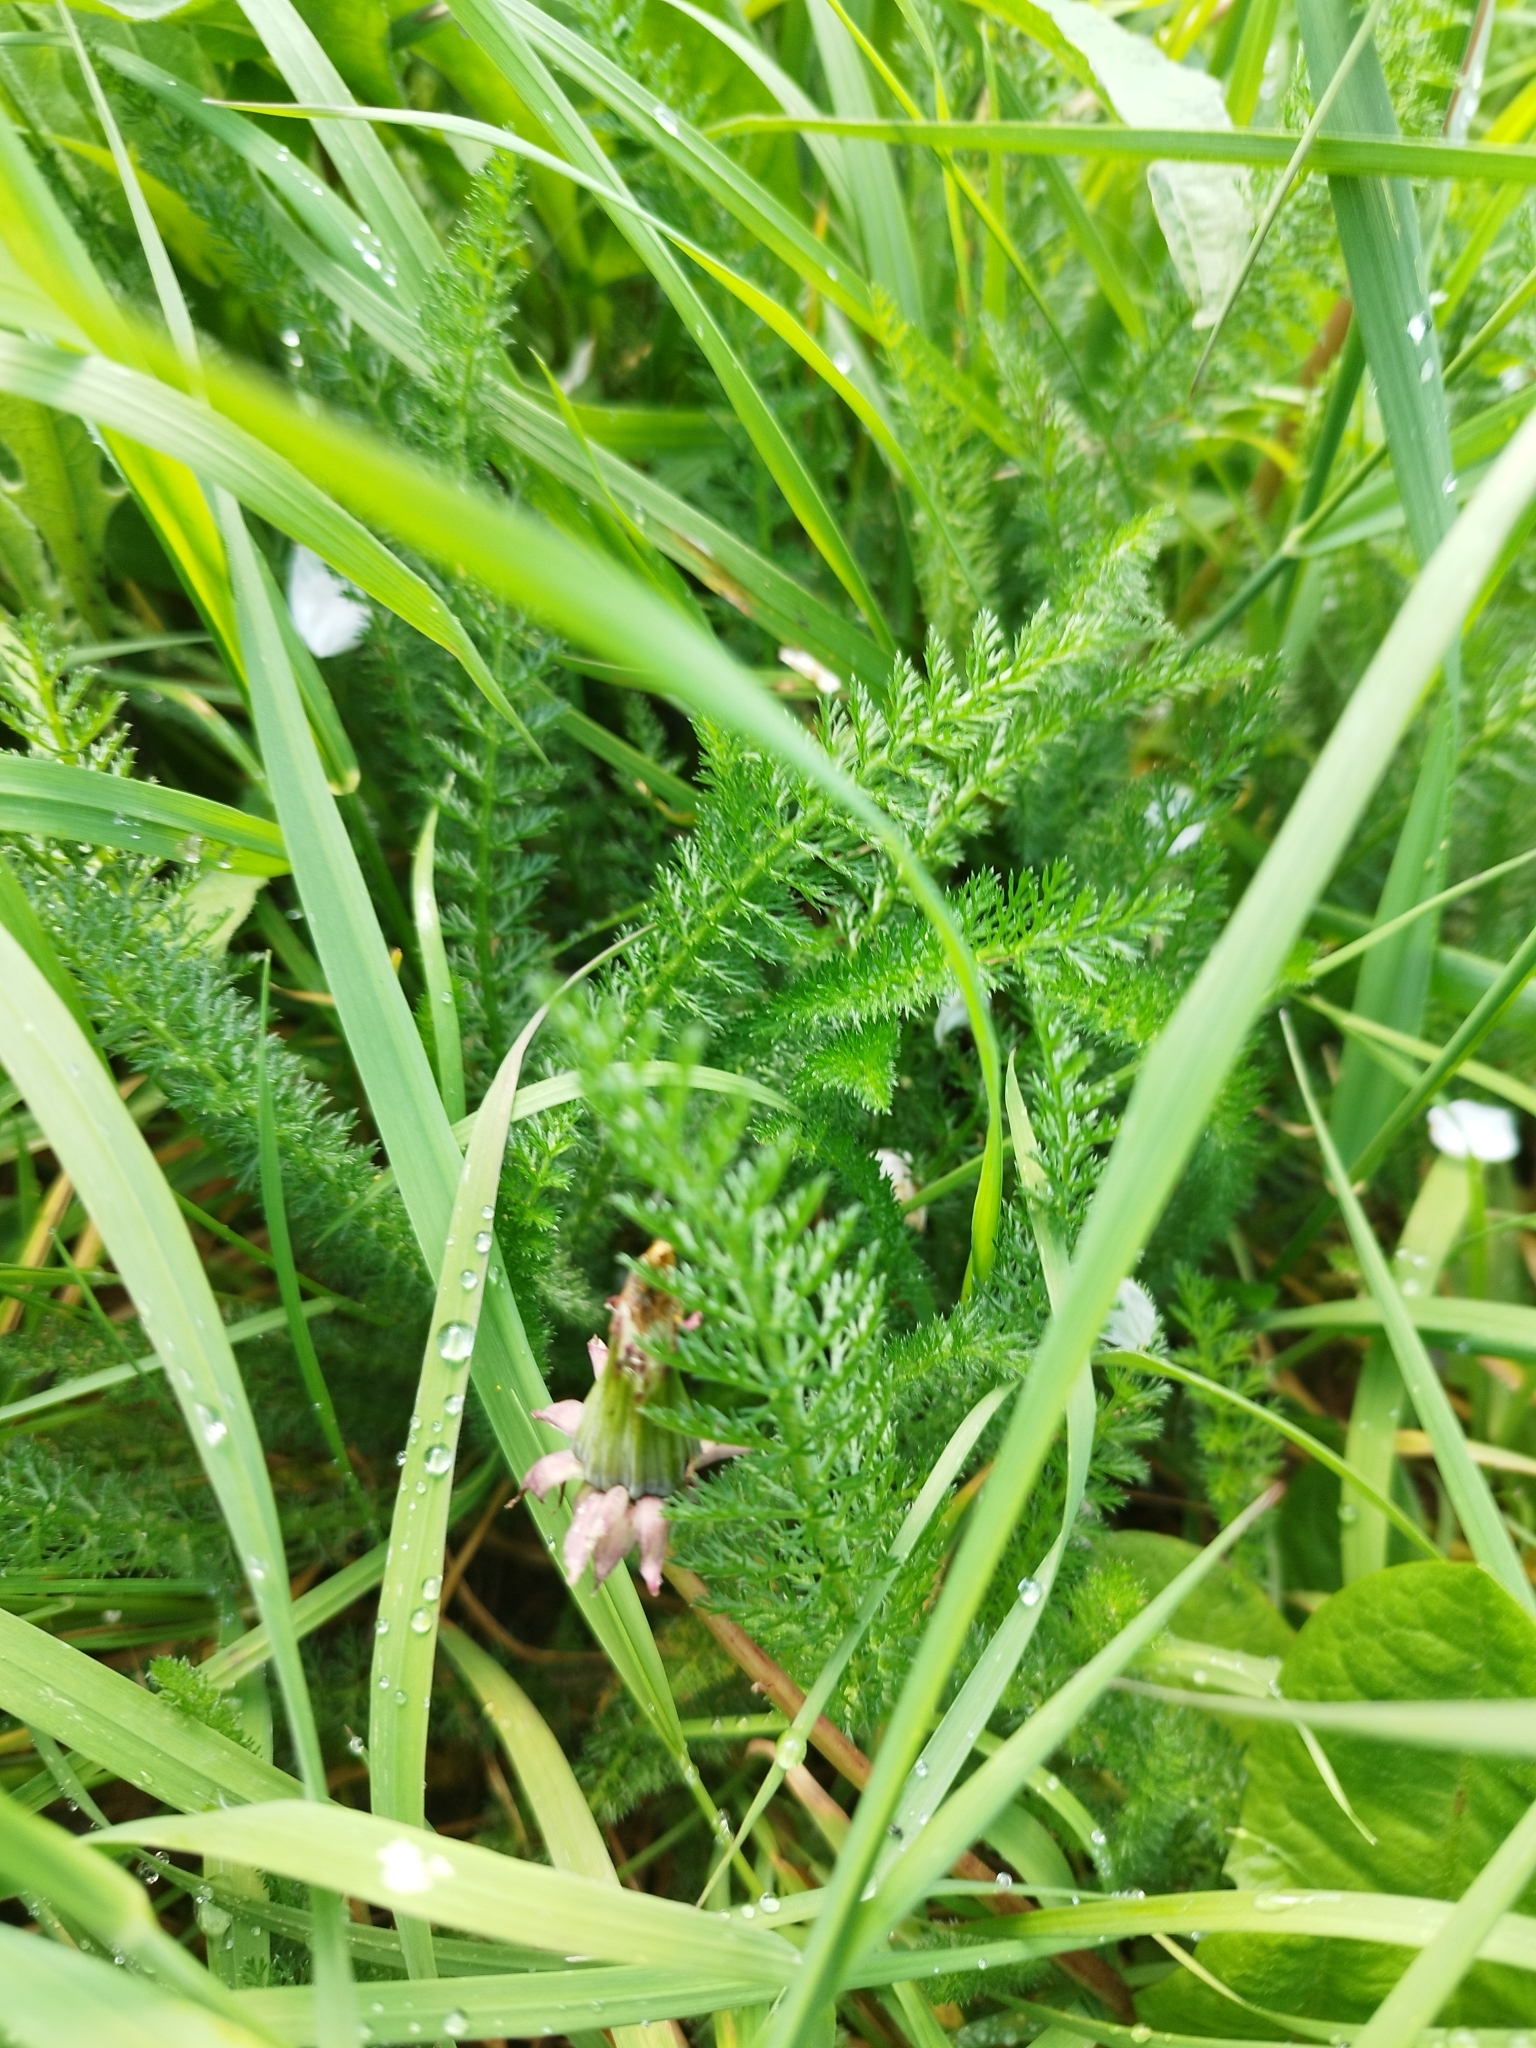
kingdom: Plantae
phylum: Tracheophyta
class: Magnoliopsida
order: Asterales
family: Asteraceae
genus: Achillea
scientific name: Achillea millefolium
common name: Yarrow
